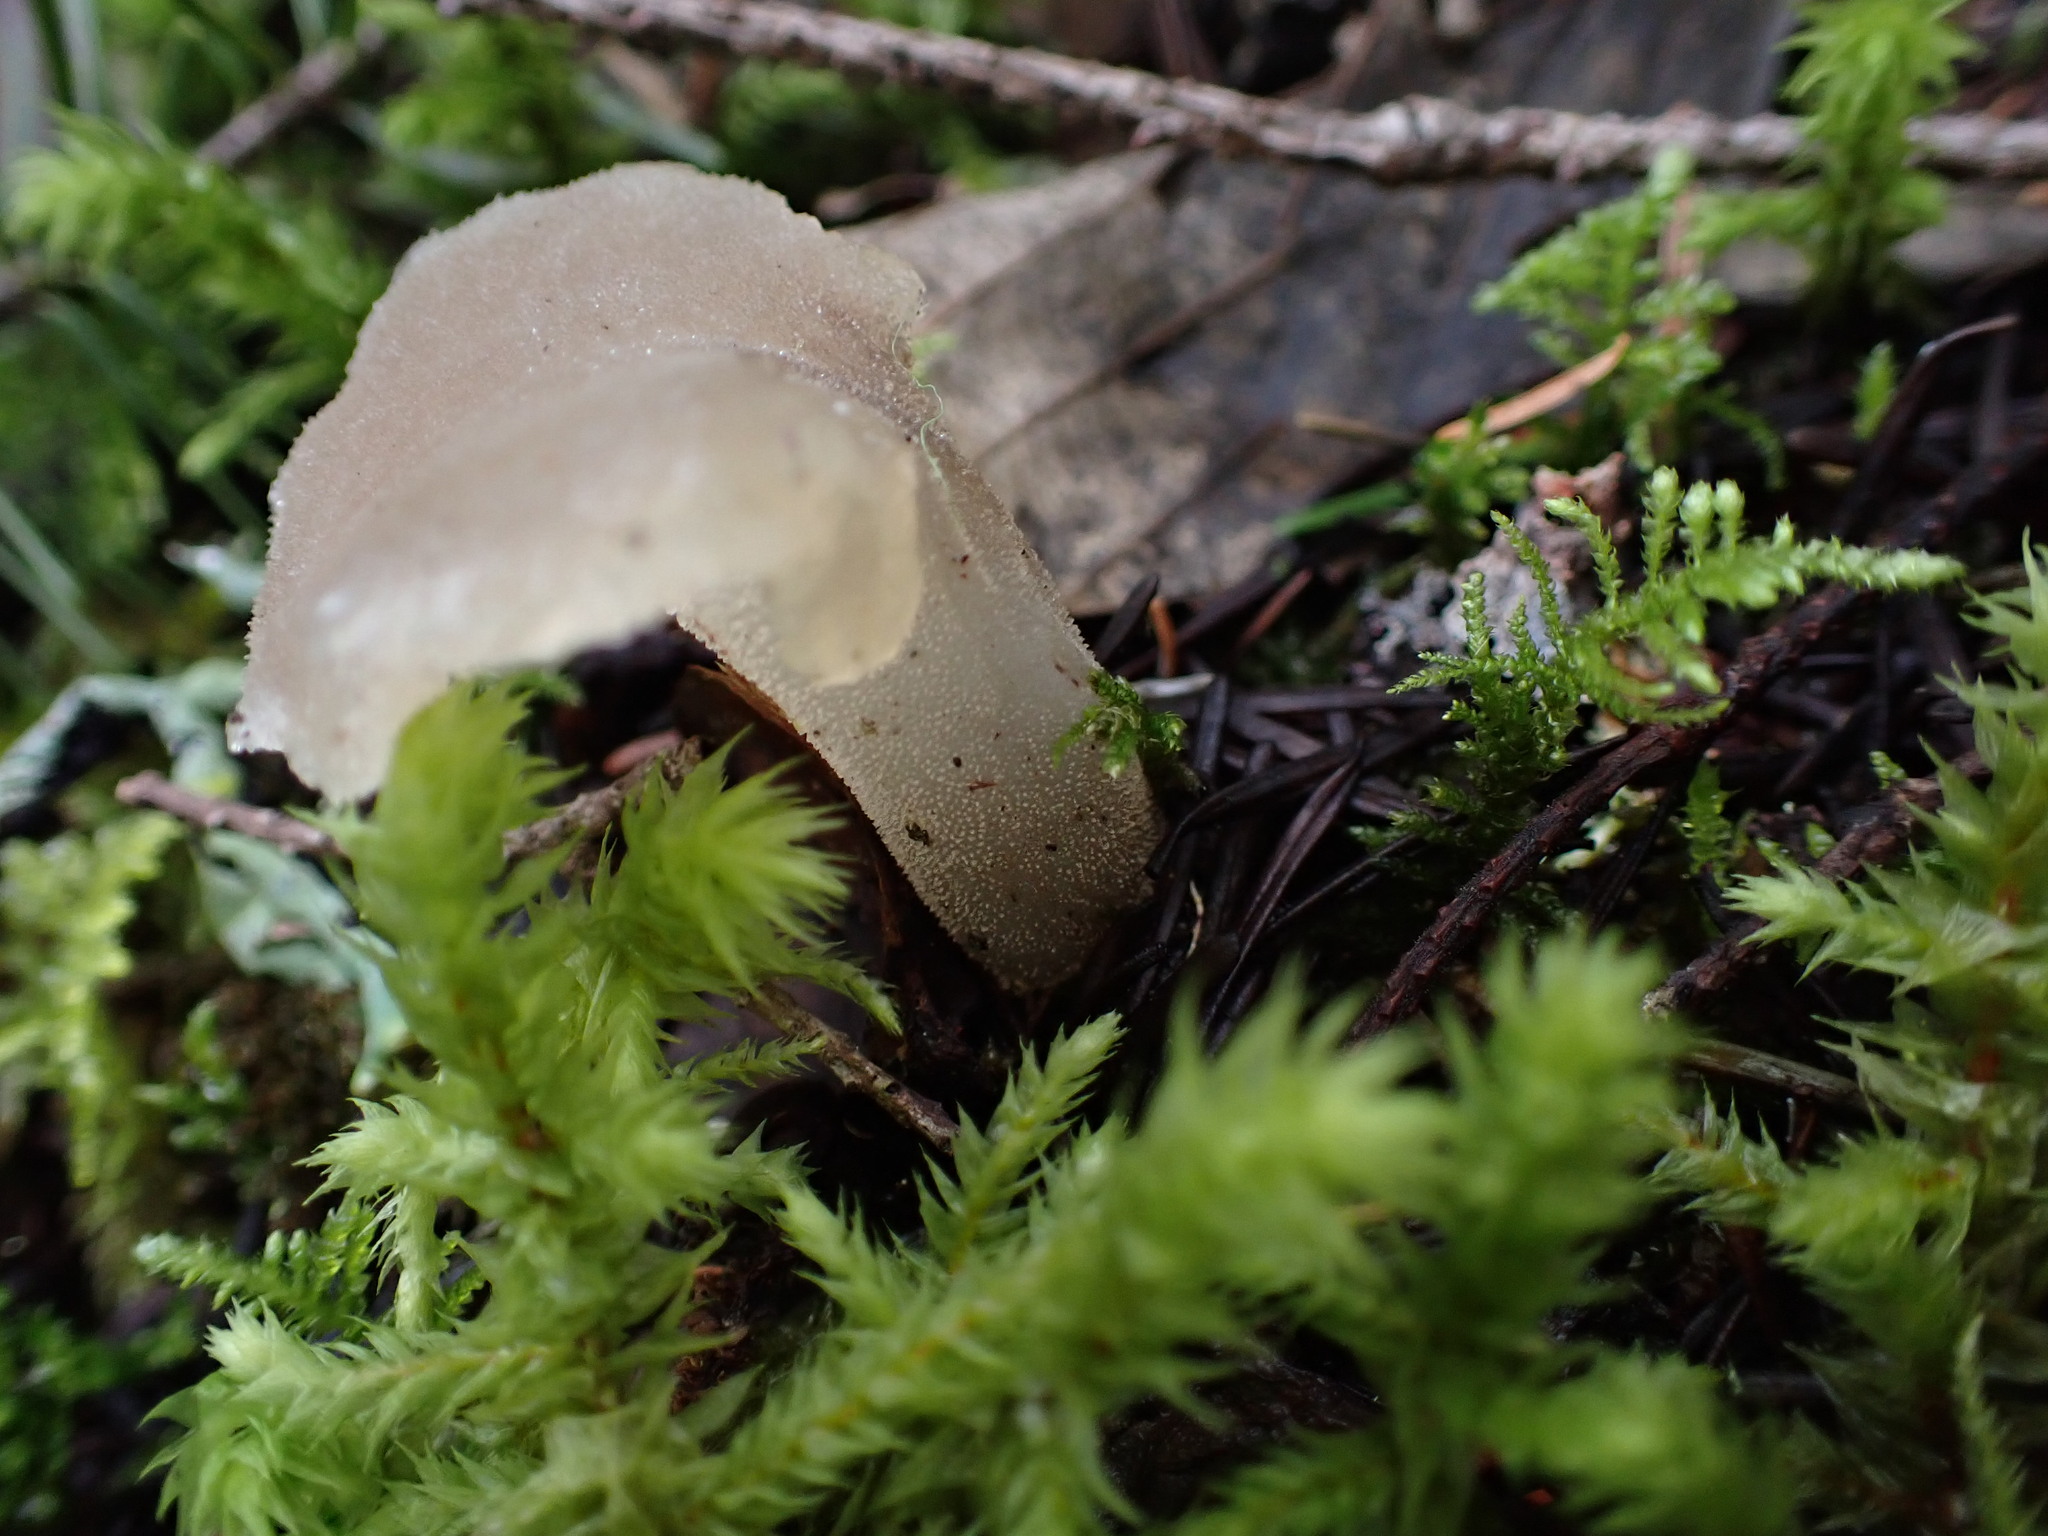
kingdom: Fungi
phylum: Basidiomycota
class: Agaricomycetes
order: Auriculariales
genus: Pseudohydnum
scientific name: Pseudohydnum gelatinosum
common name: Jelly tongue
